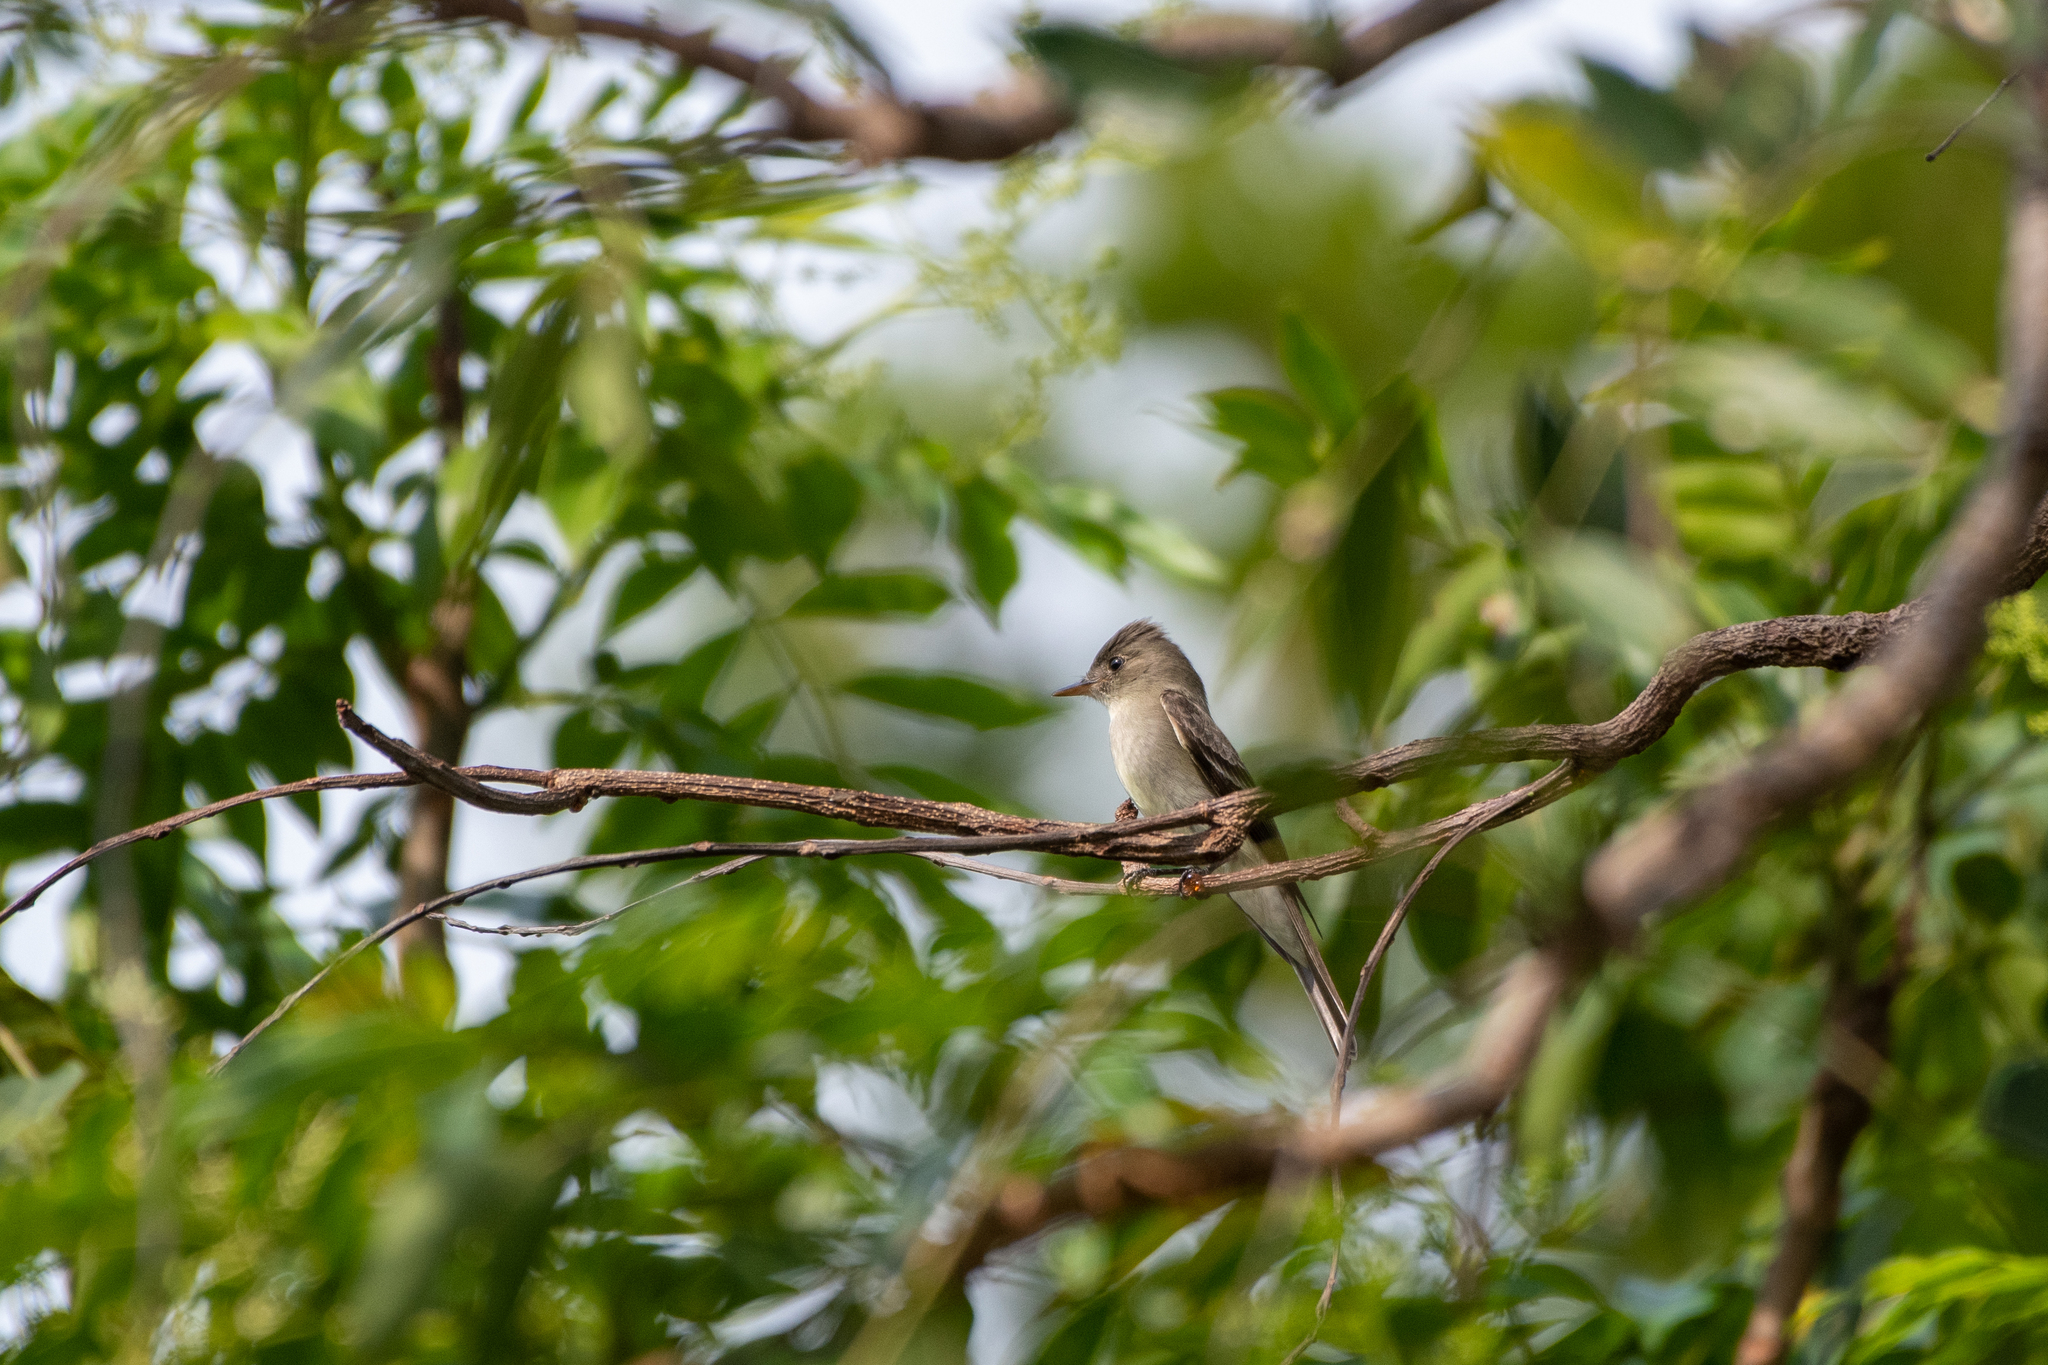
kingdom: Animalia
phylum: Chordata
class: Aves
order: Passeriformes
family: Tyrannidae
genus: Contopus
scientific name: Contopus virens
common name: Eastern wood-pewee
